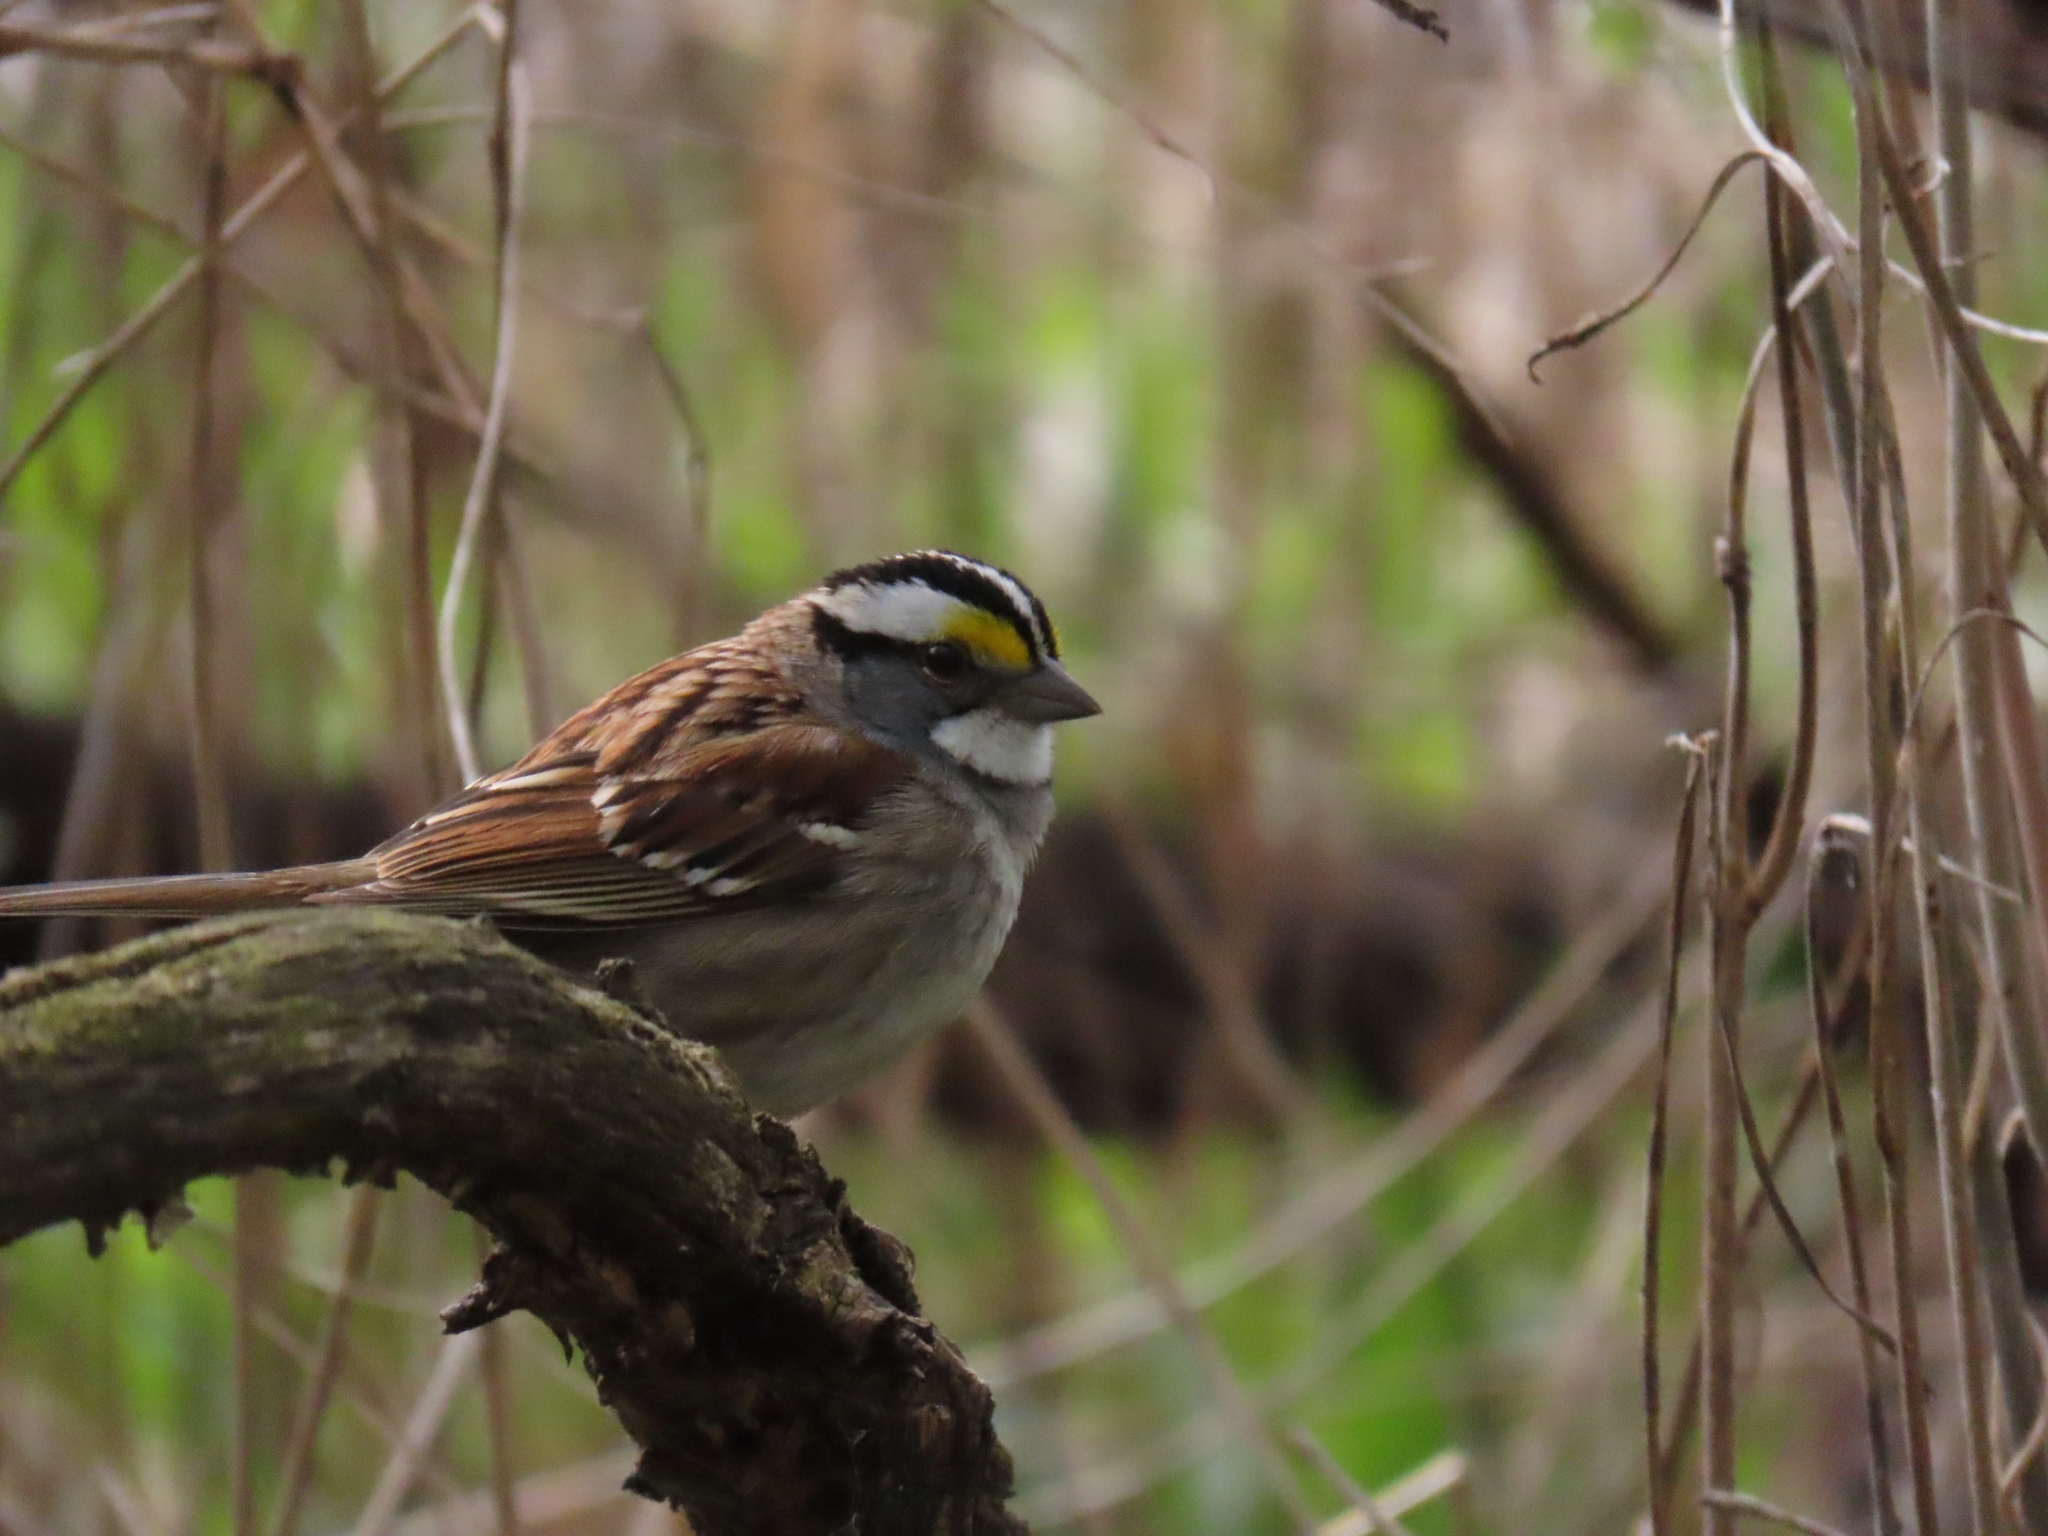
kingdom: Animalia
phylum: Chordata
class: Aves
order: Passeriformes
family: Passerellidae
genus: Zonotrichia
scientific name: Zonotrichia albicollis
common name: White-throated sparrow
